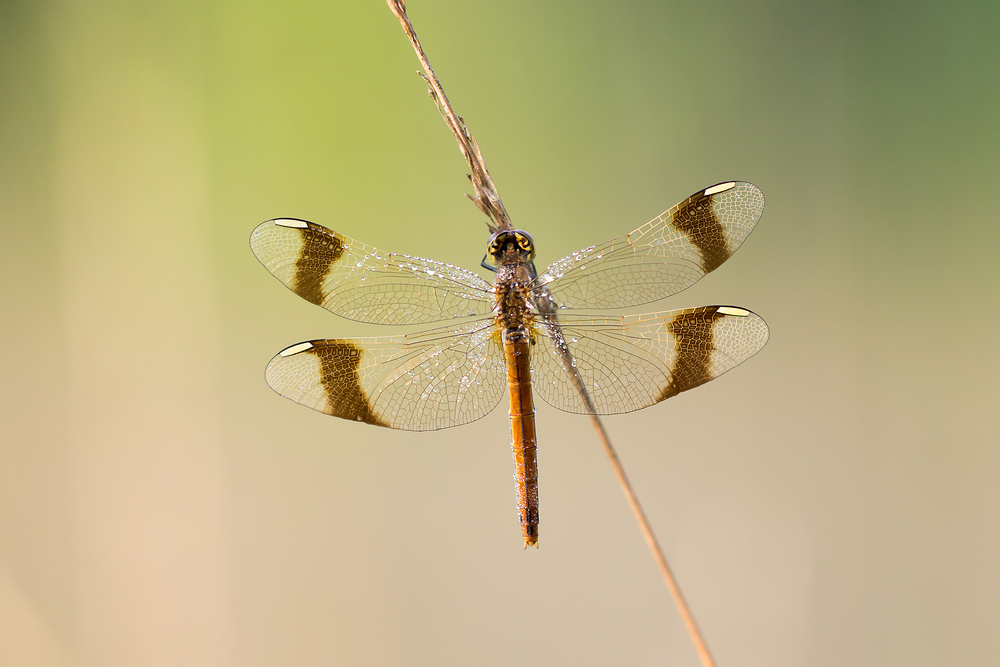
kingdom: Animalia
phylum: Arthropoda
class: Insecta
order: Odonata
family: Libellulidae
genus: Sympetrum
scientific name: Sympetrum pedemontanum
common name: Banded darter
